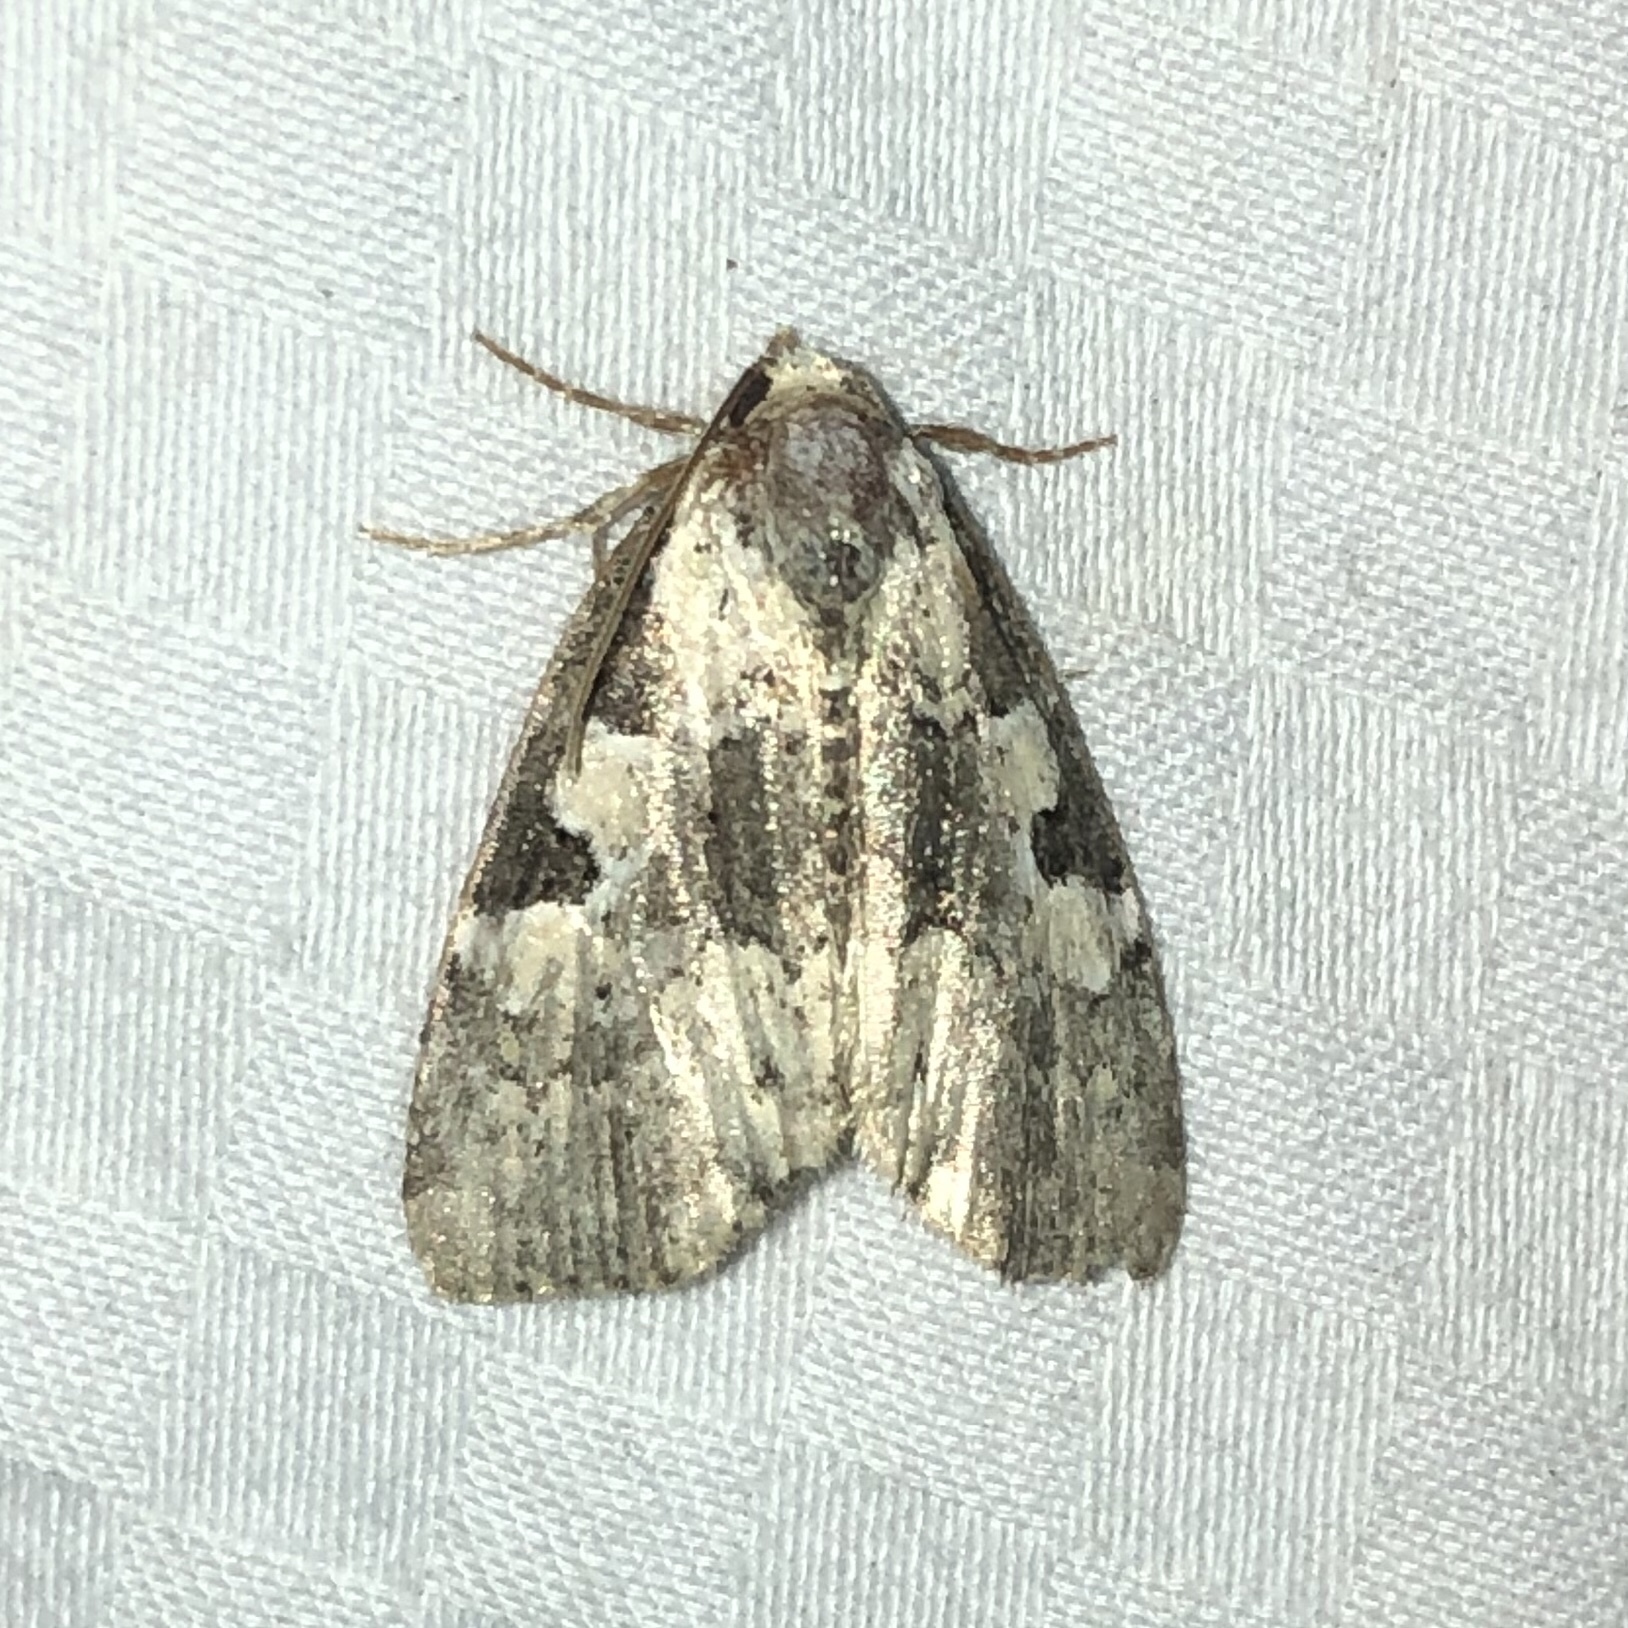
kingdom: Animalia
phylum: Arthropoda
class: Insecta
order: Lepidoptera
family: Noctuidae
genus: Leuconycta
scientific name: Leuconycta lepidula
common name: Marbled-green leuconycta moth
